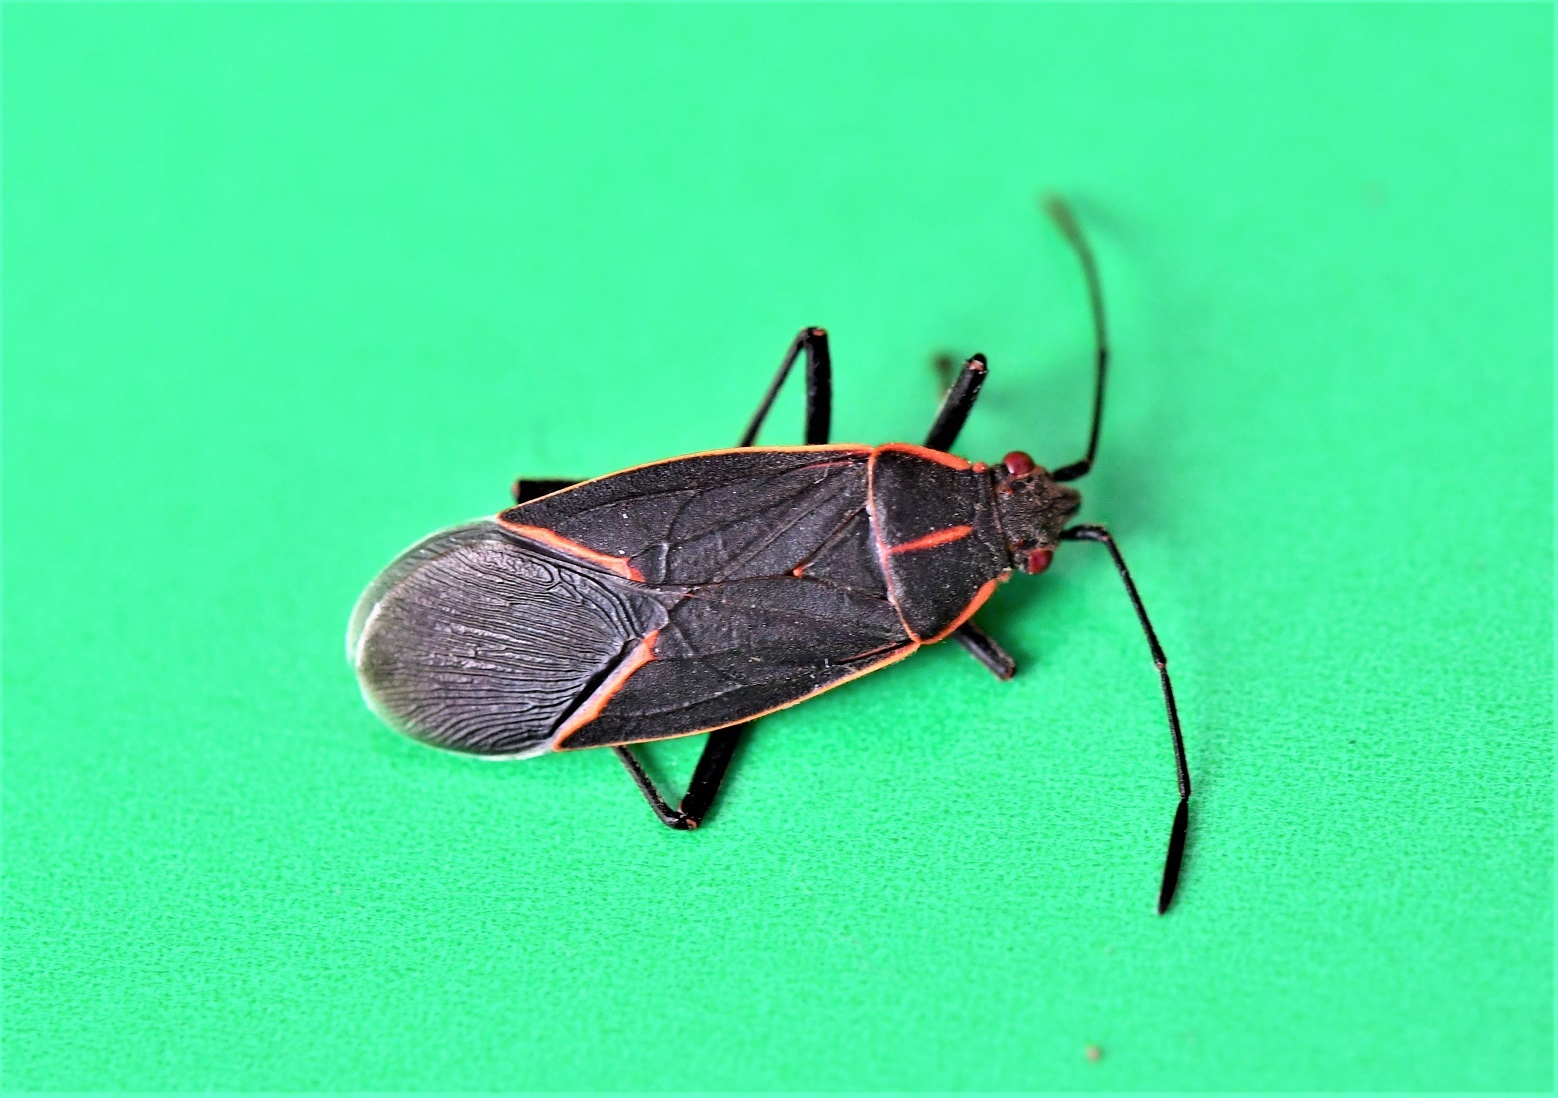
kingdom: Animalia
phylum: Arthropoda
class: Insecta
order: Hemiptera
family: Rhopalidae
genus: Boisea
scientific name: Boisea trivittata
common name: Boxelder bug
